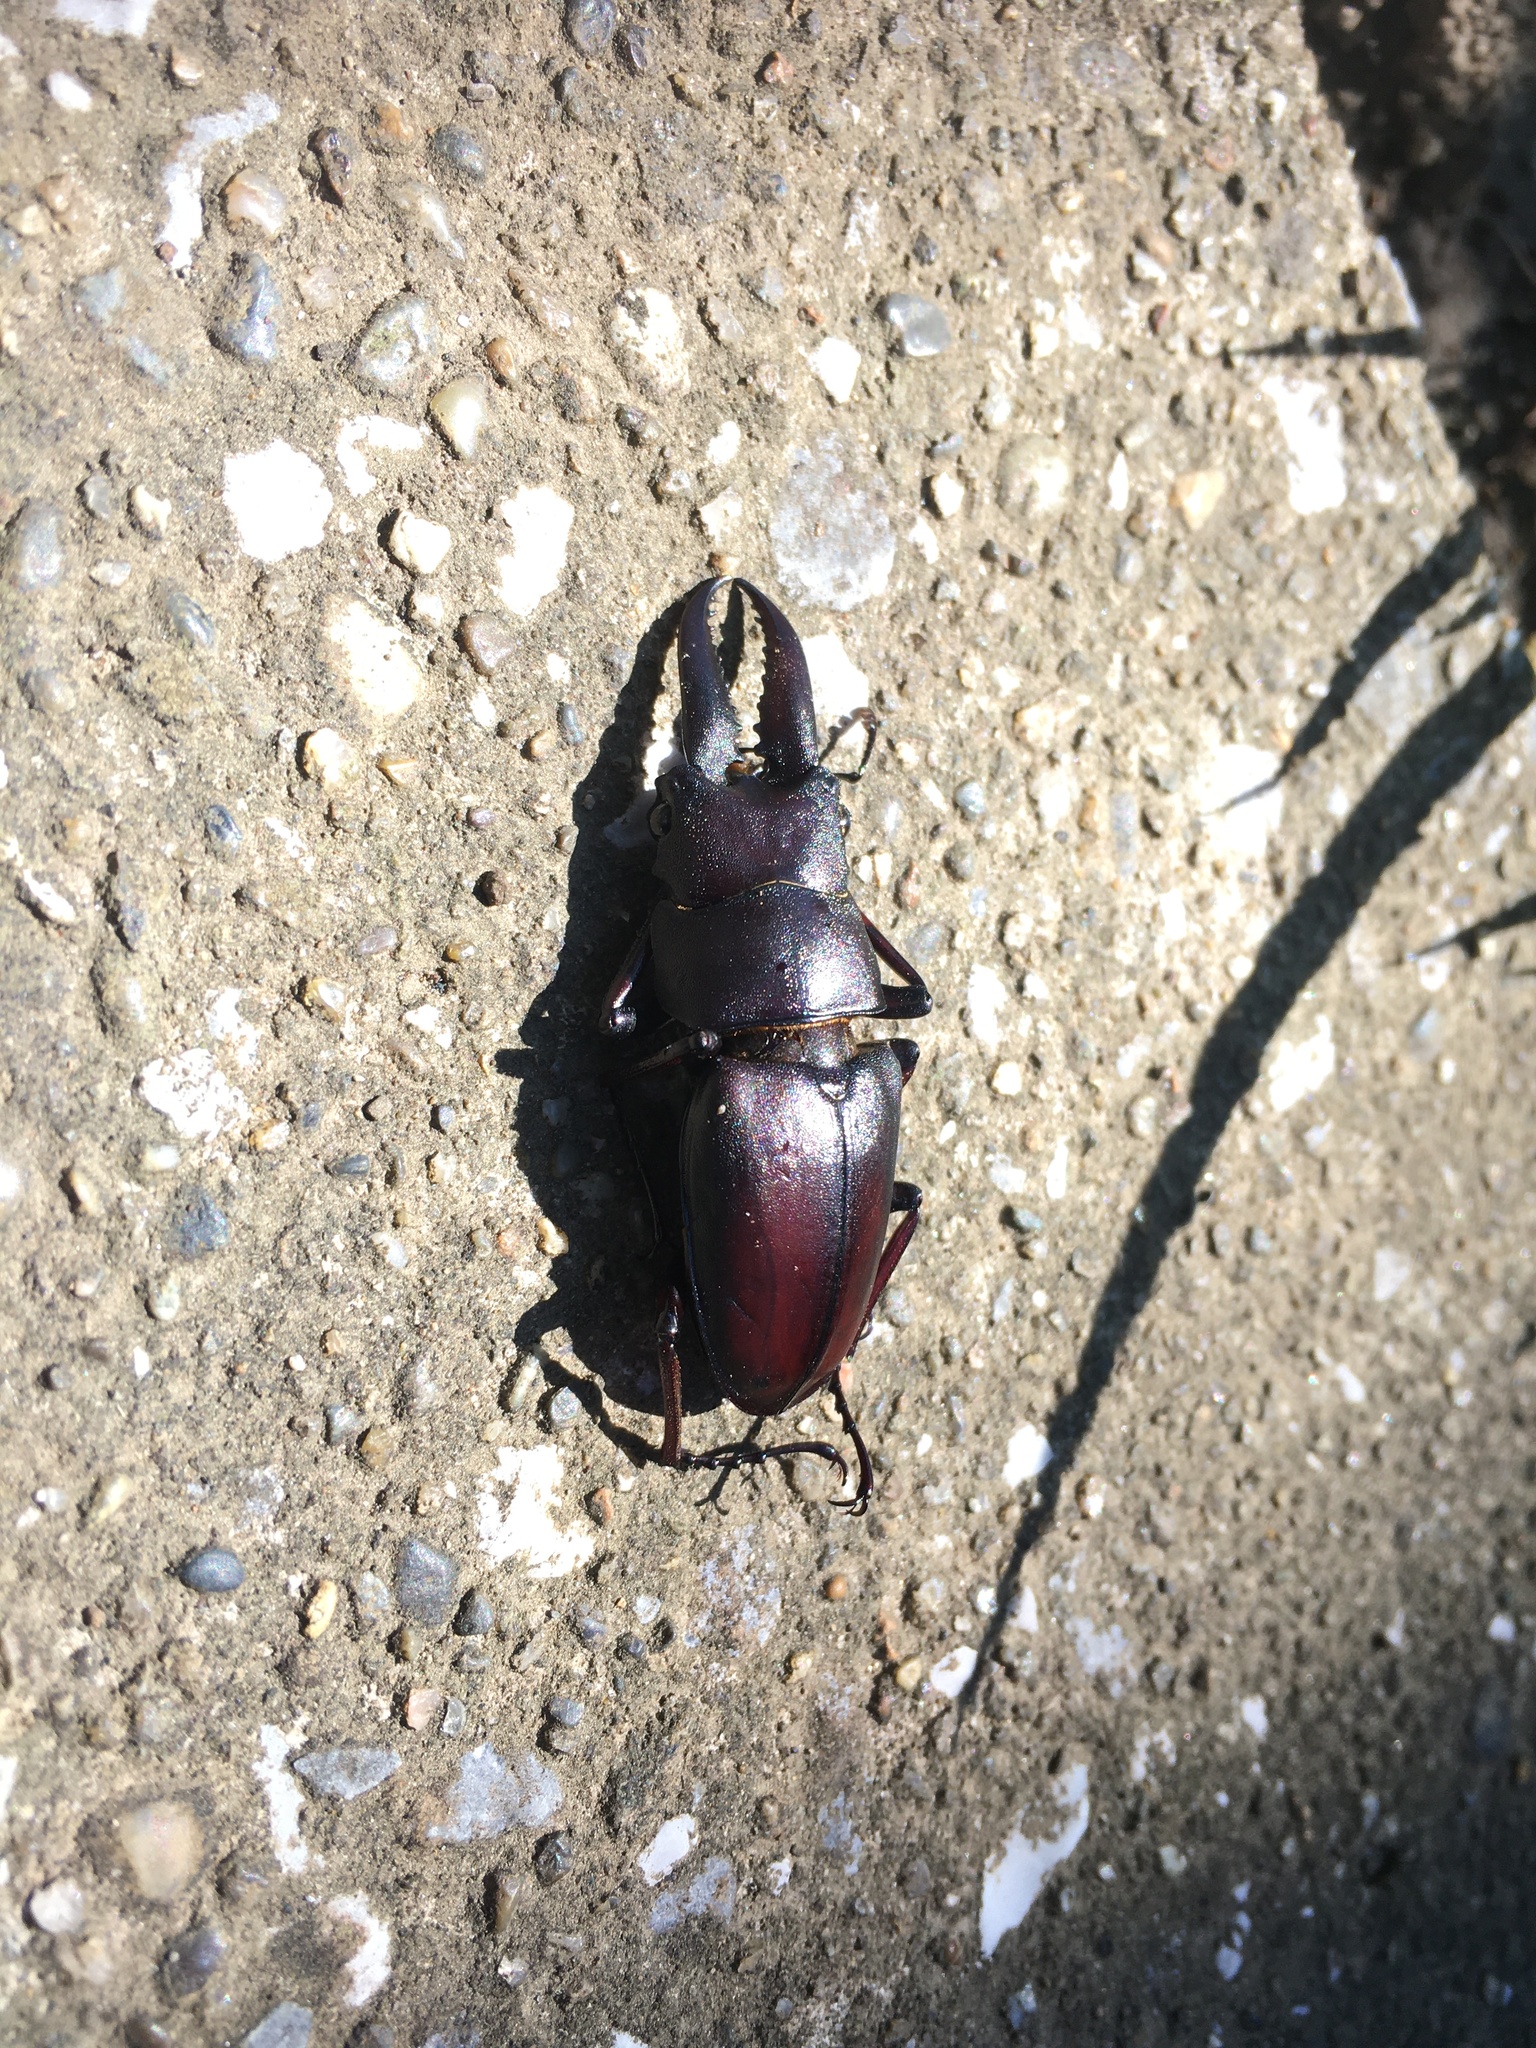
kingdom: Animalia
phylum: Arthropoda
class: Insecta
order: Coleoptera
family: Lucanidae
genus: Prosopocoilus
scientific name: Prosopocoilus inclinatus
